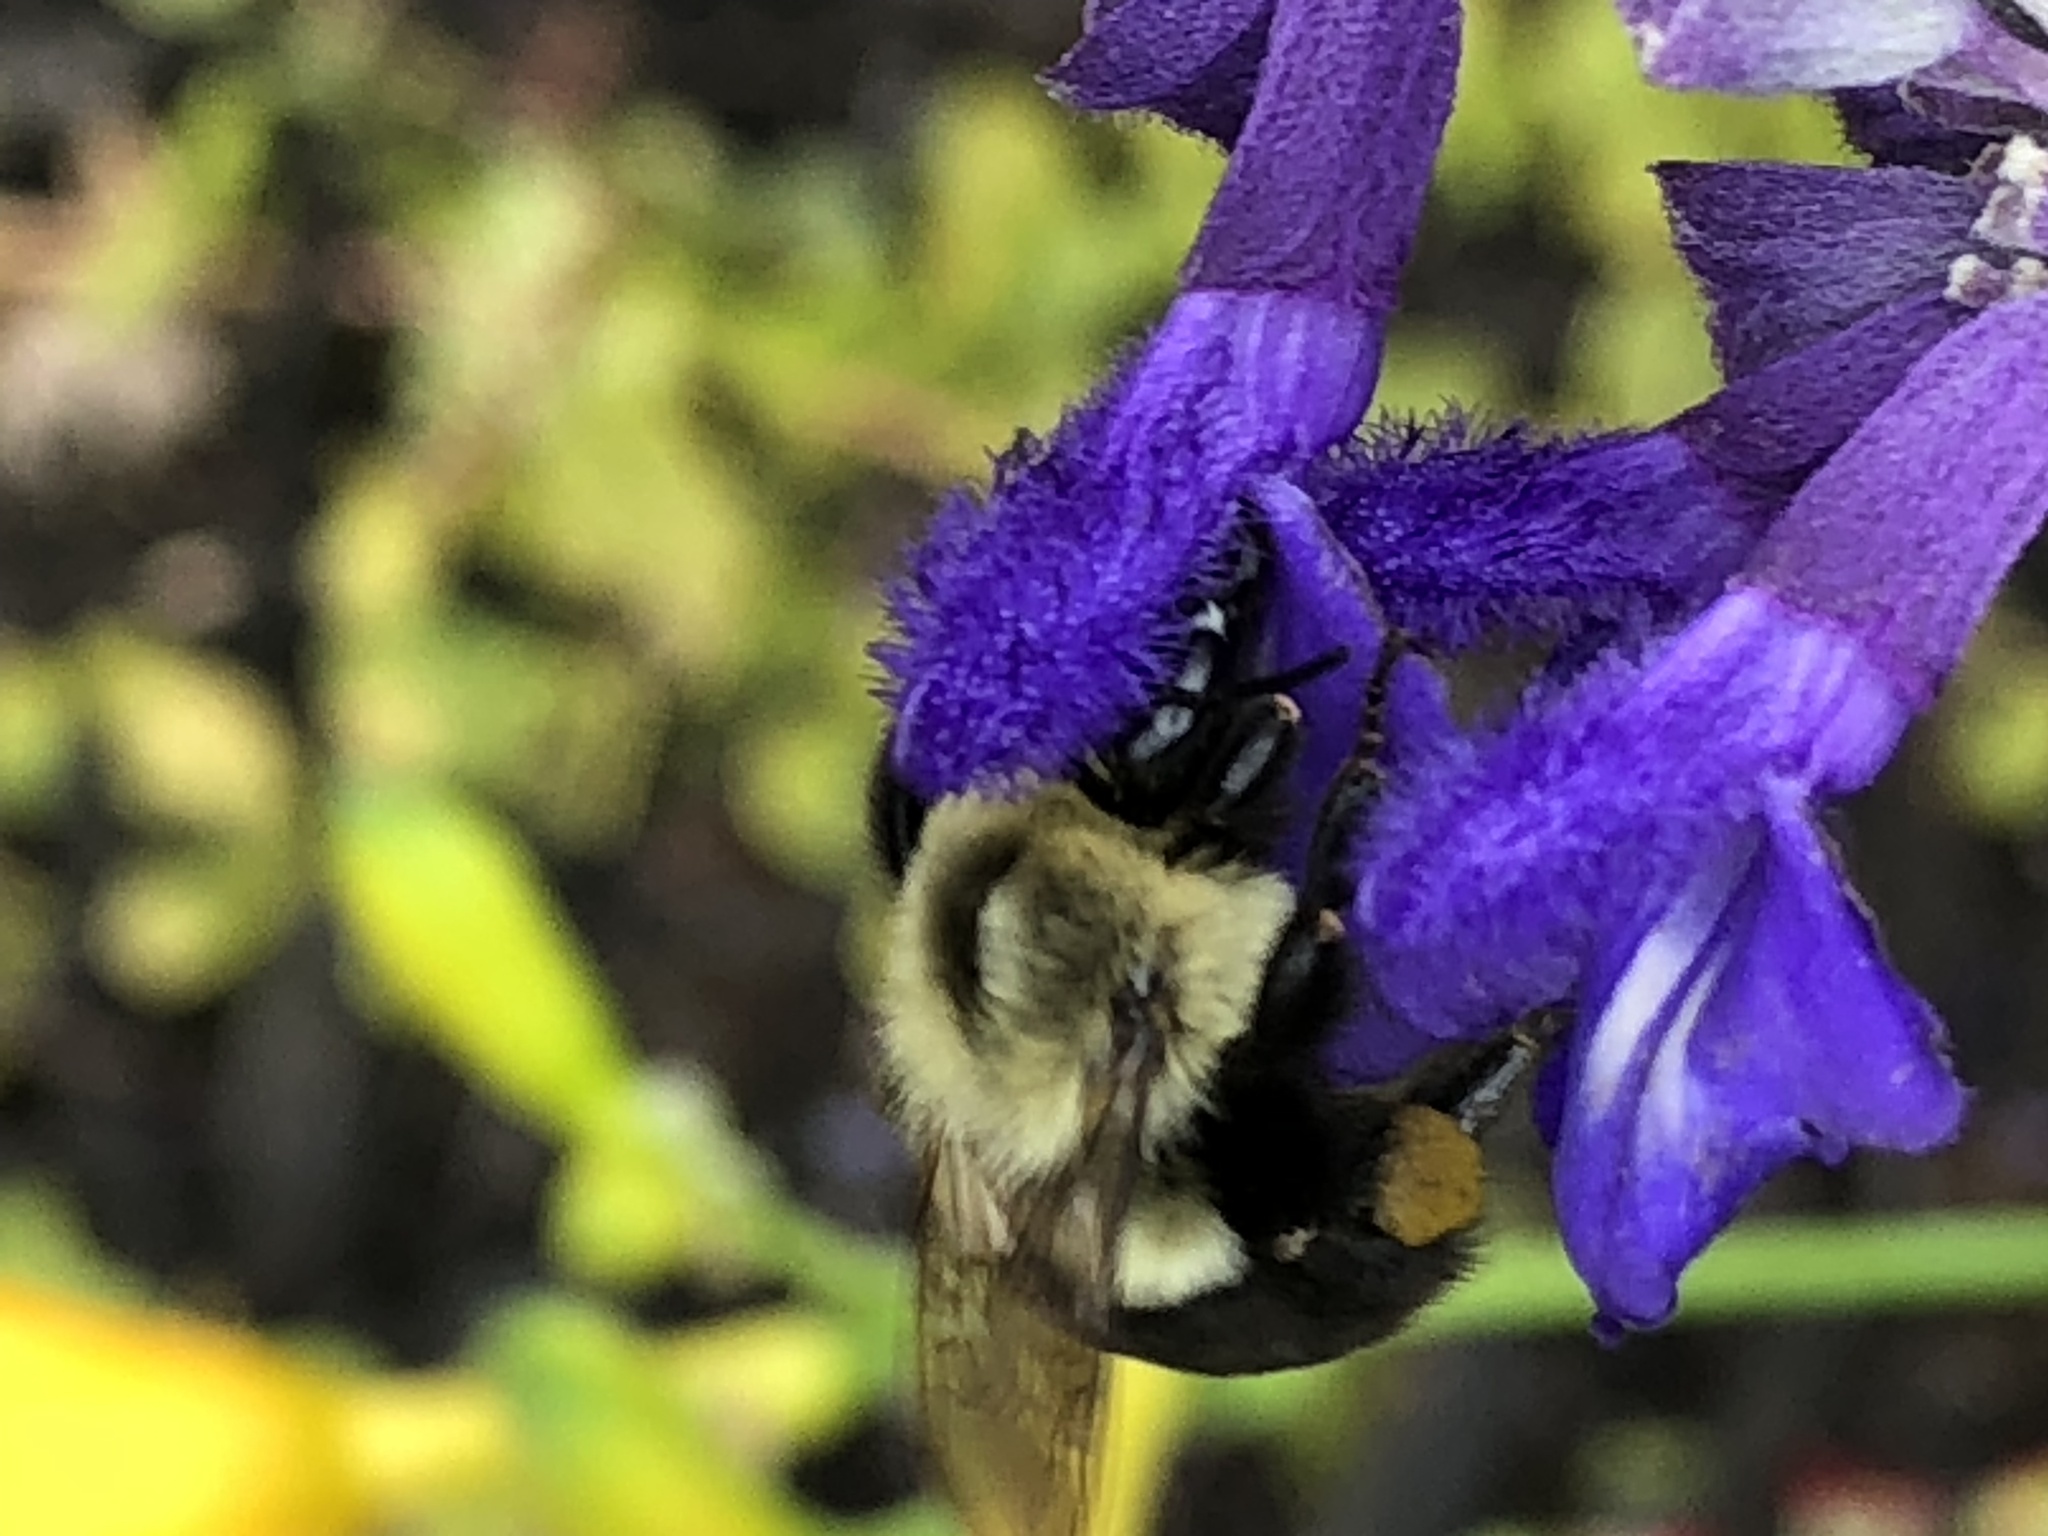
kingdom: Animalia
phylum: Arthropoda
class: Insecta
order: Hymenoptera
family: Apidae
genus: Bombus
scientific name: Bombus impatiens
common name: Common eastern bumble bee
